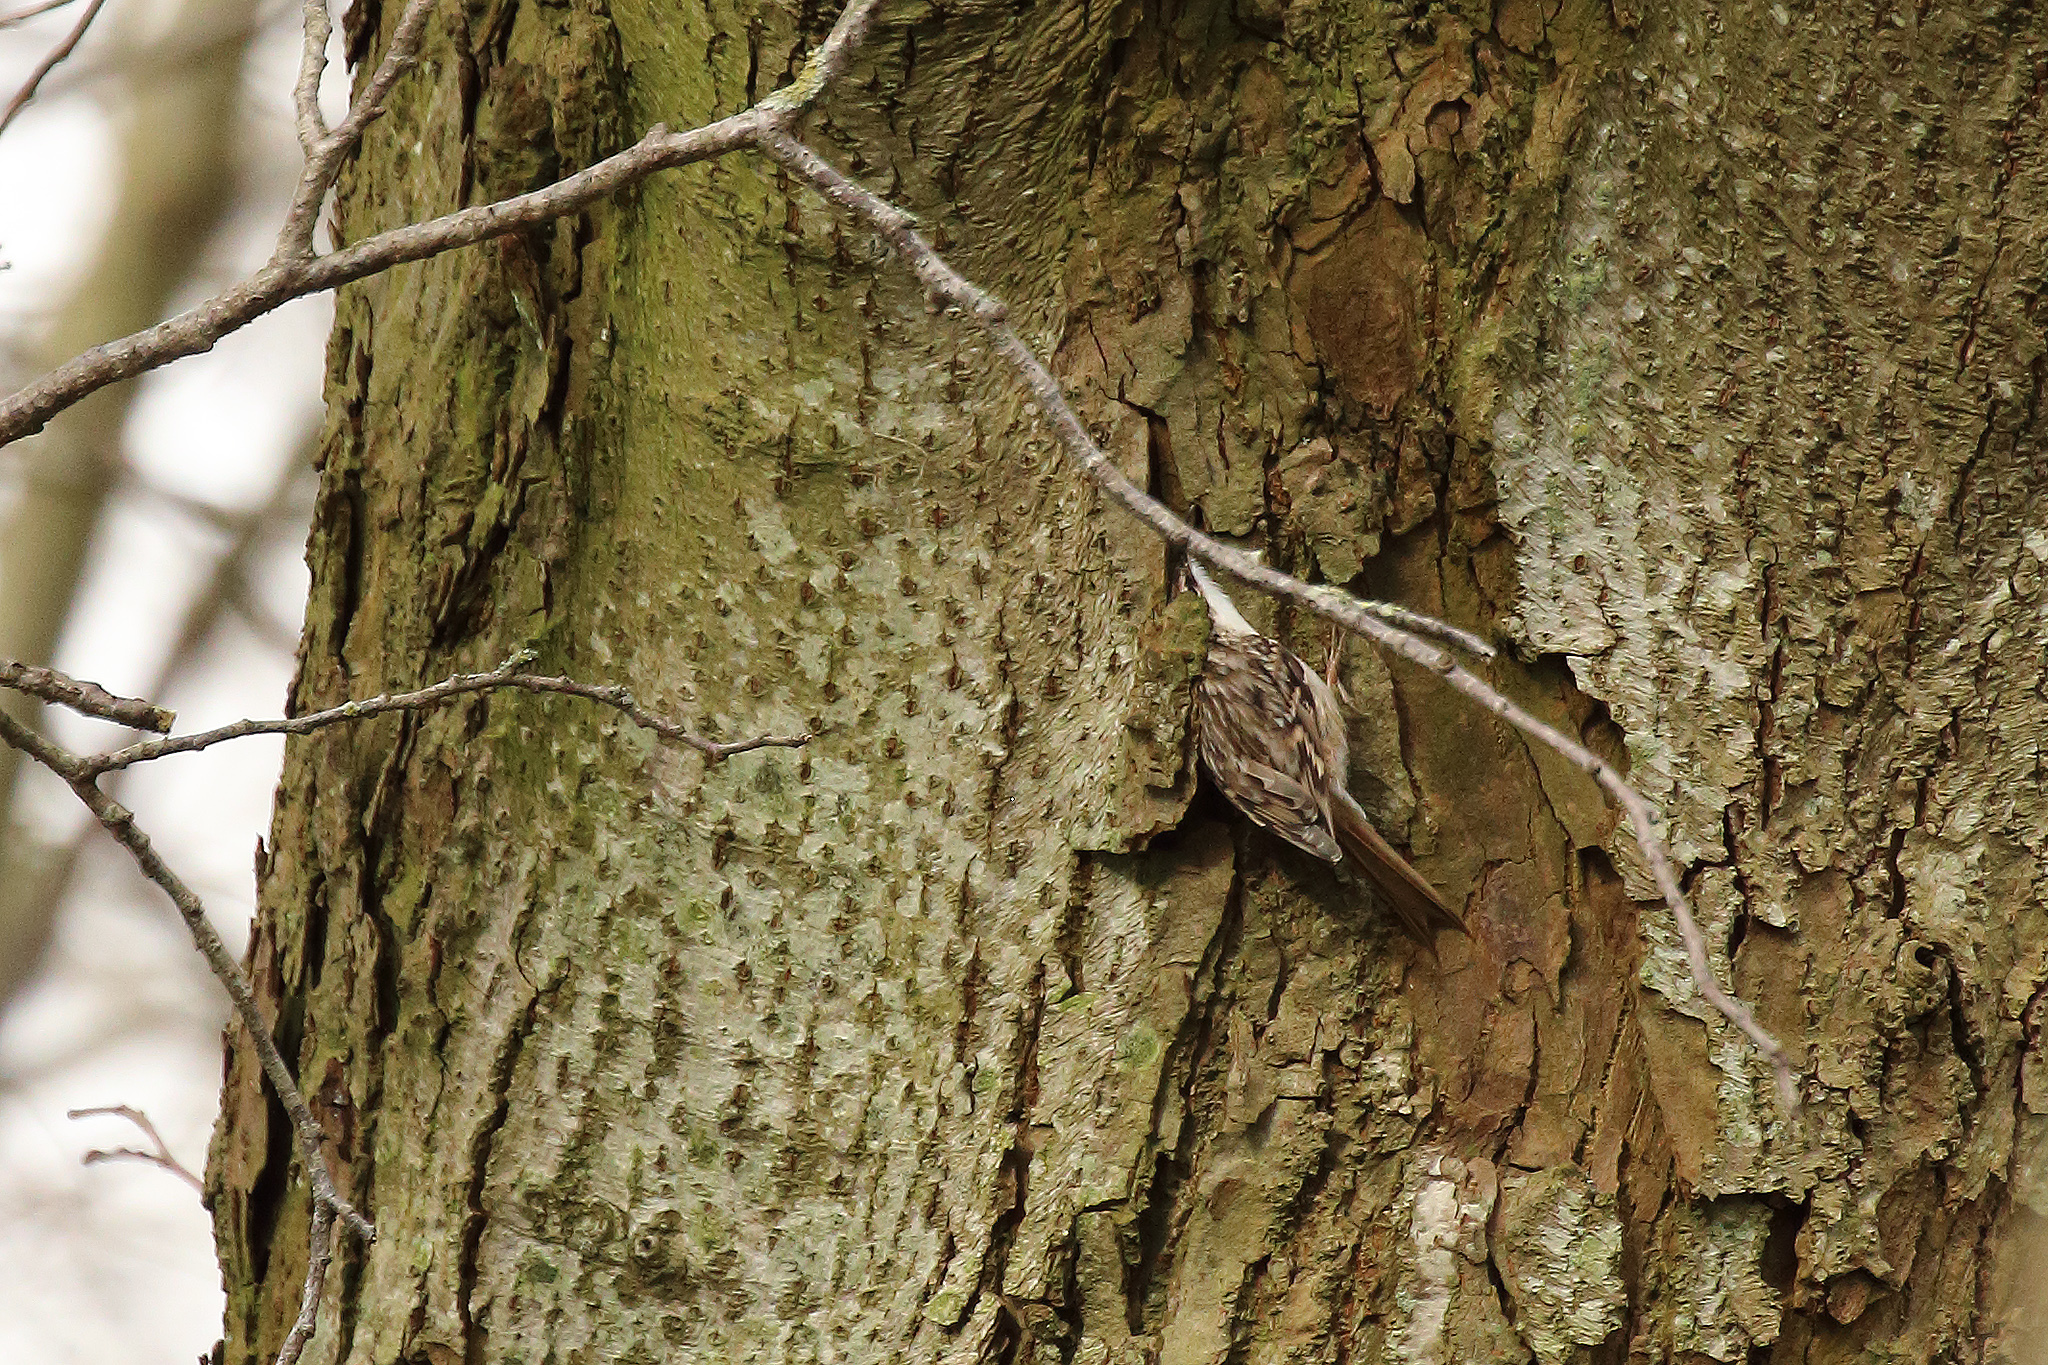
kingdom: Animalia
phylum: Chordata
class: Aves
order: Passeriformes
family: Certhiidae
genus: Certhia
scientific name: Certhia brachydactyla
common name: Short-toed treecreeper
